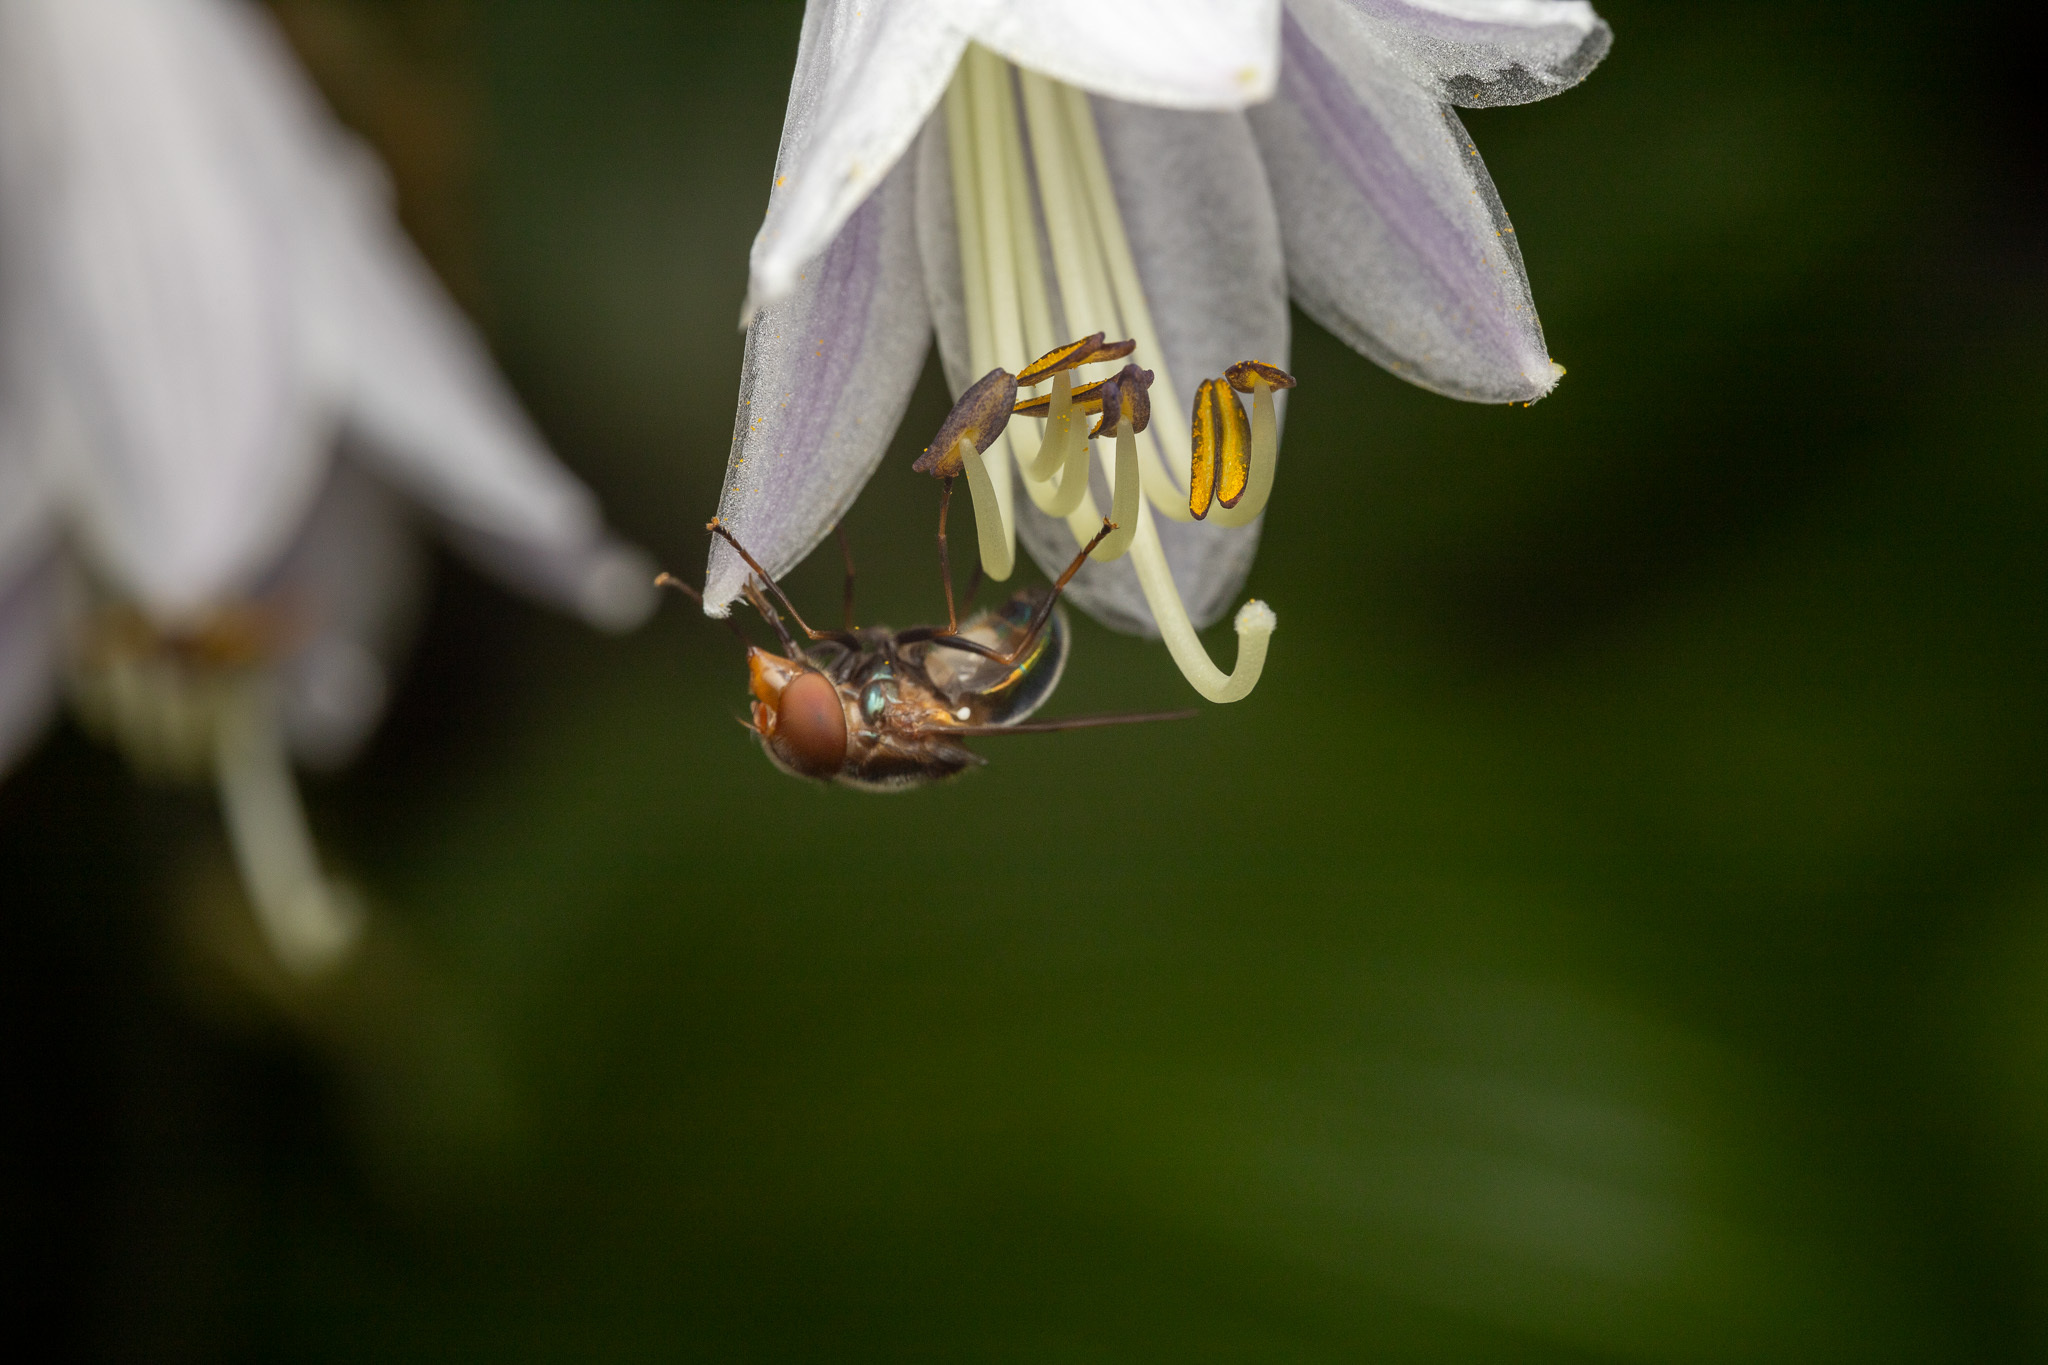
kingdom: Animalia
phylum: Arthropoda
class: Insecta
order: Diptera
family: Syrphidae
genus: Copestylum
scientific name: Copestylum vesicularium
